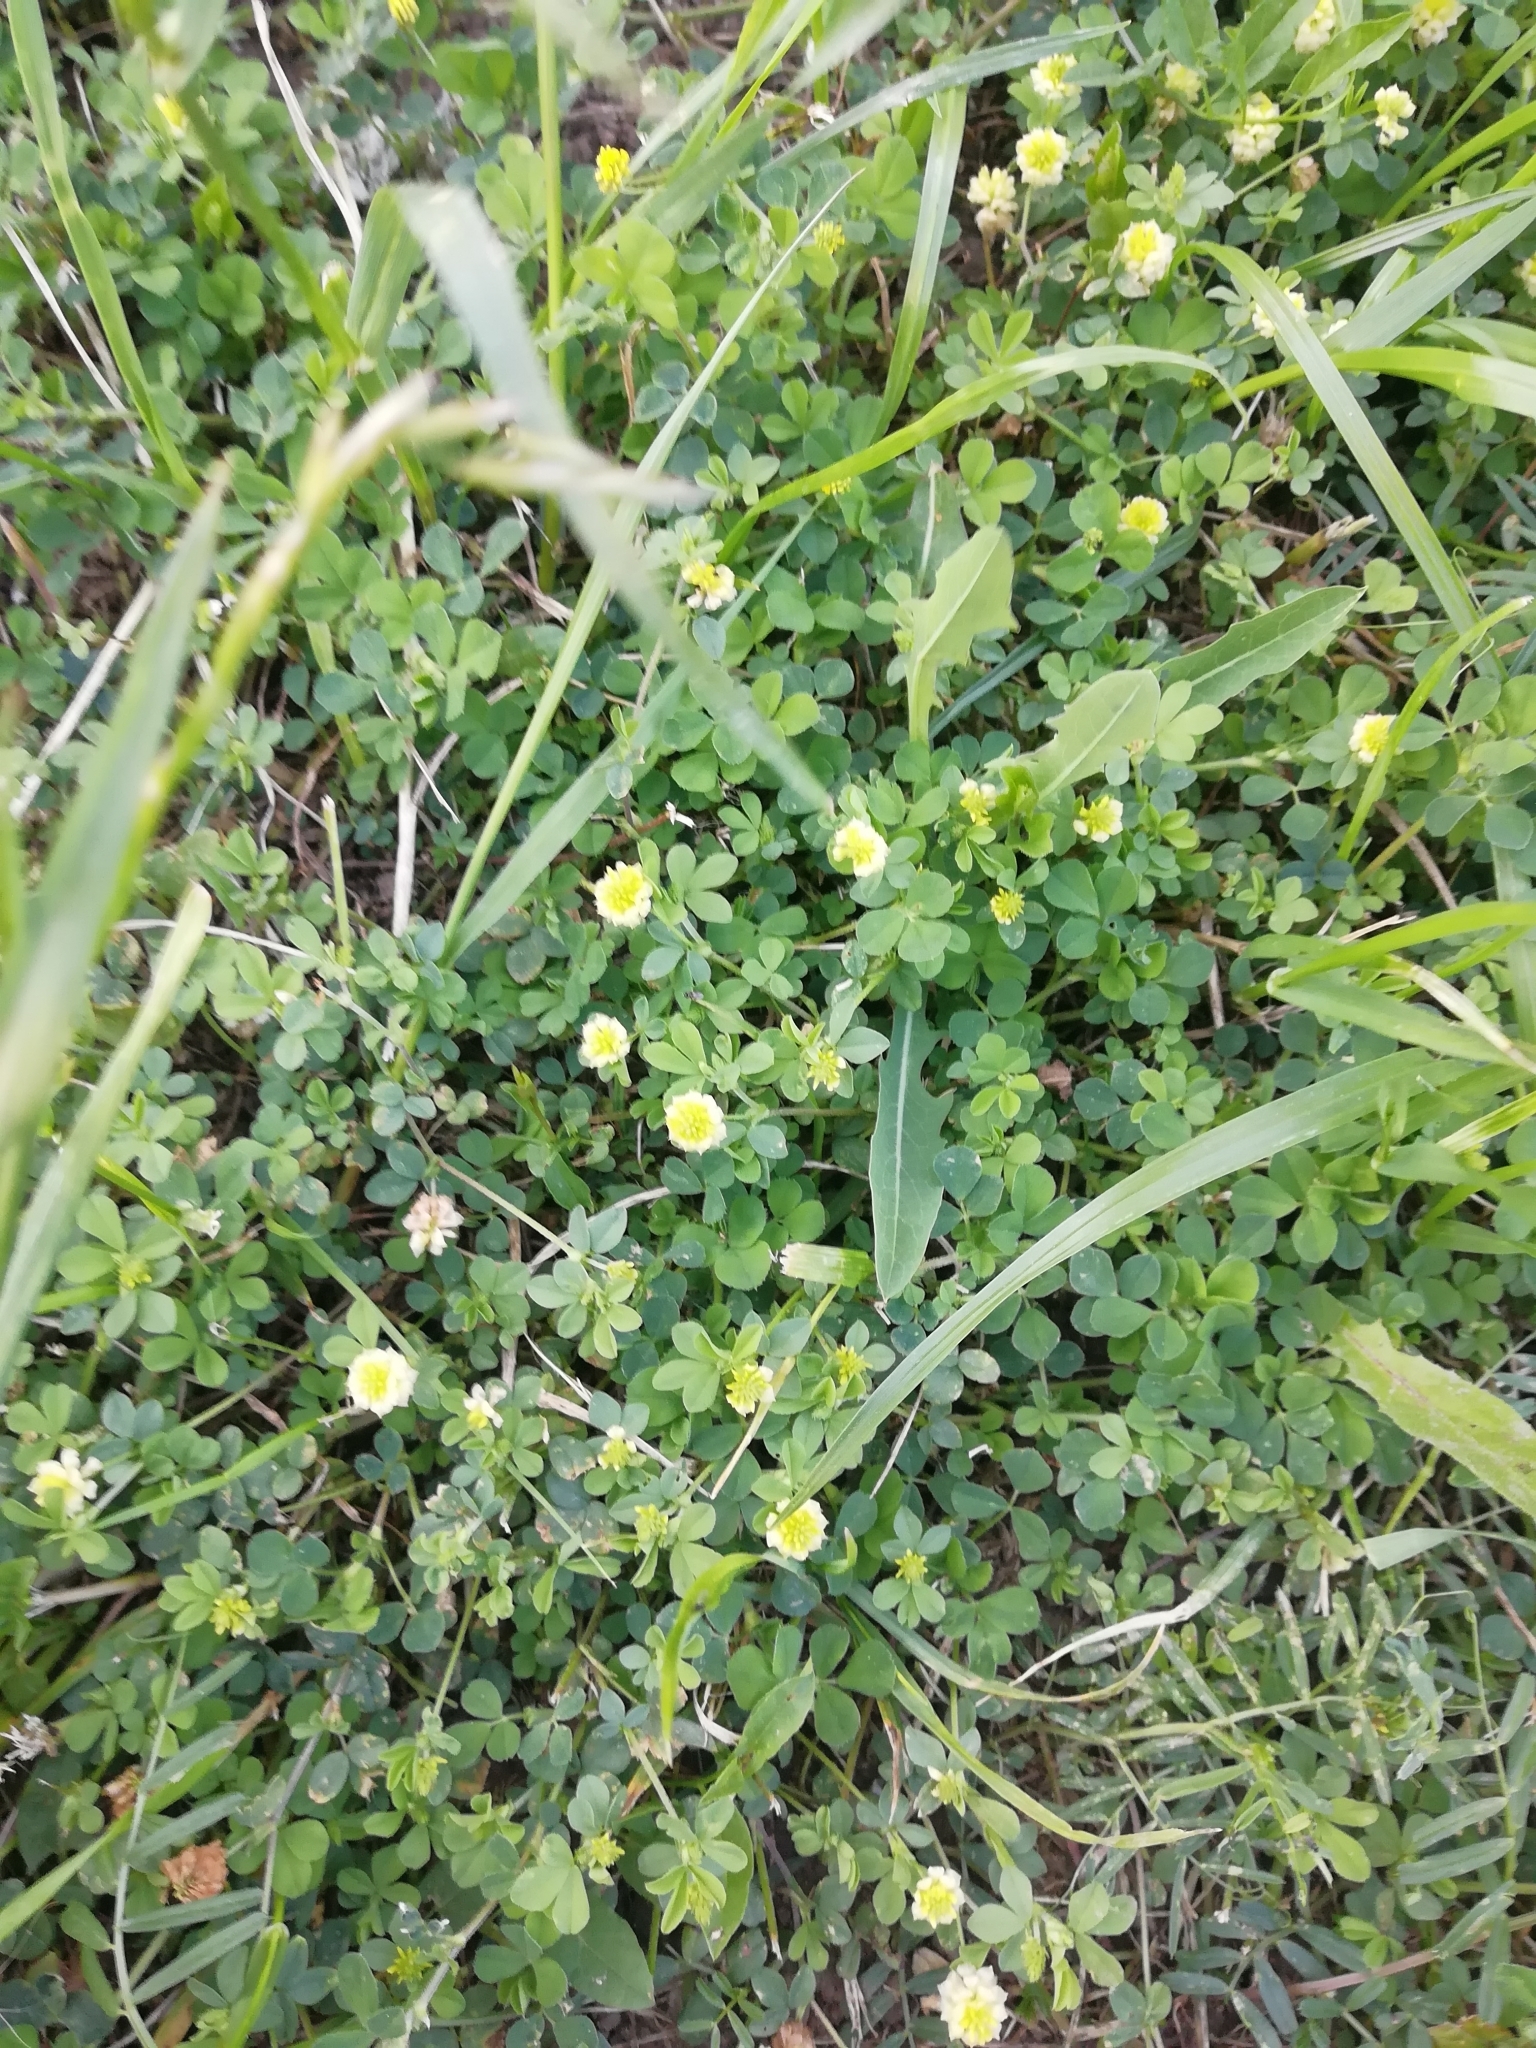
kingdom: Plantae
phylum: Tracheophyta
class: Magnoliopsida
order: Fabales
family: Fabaceae
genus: Trifolium
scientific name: Trifolium campestre
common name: Field clover
